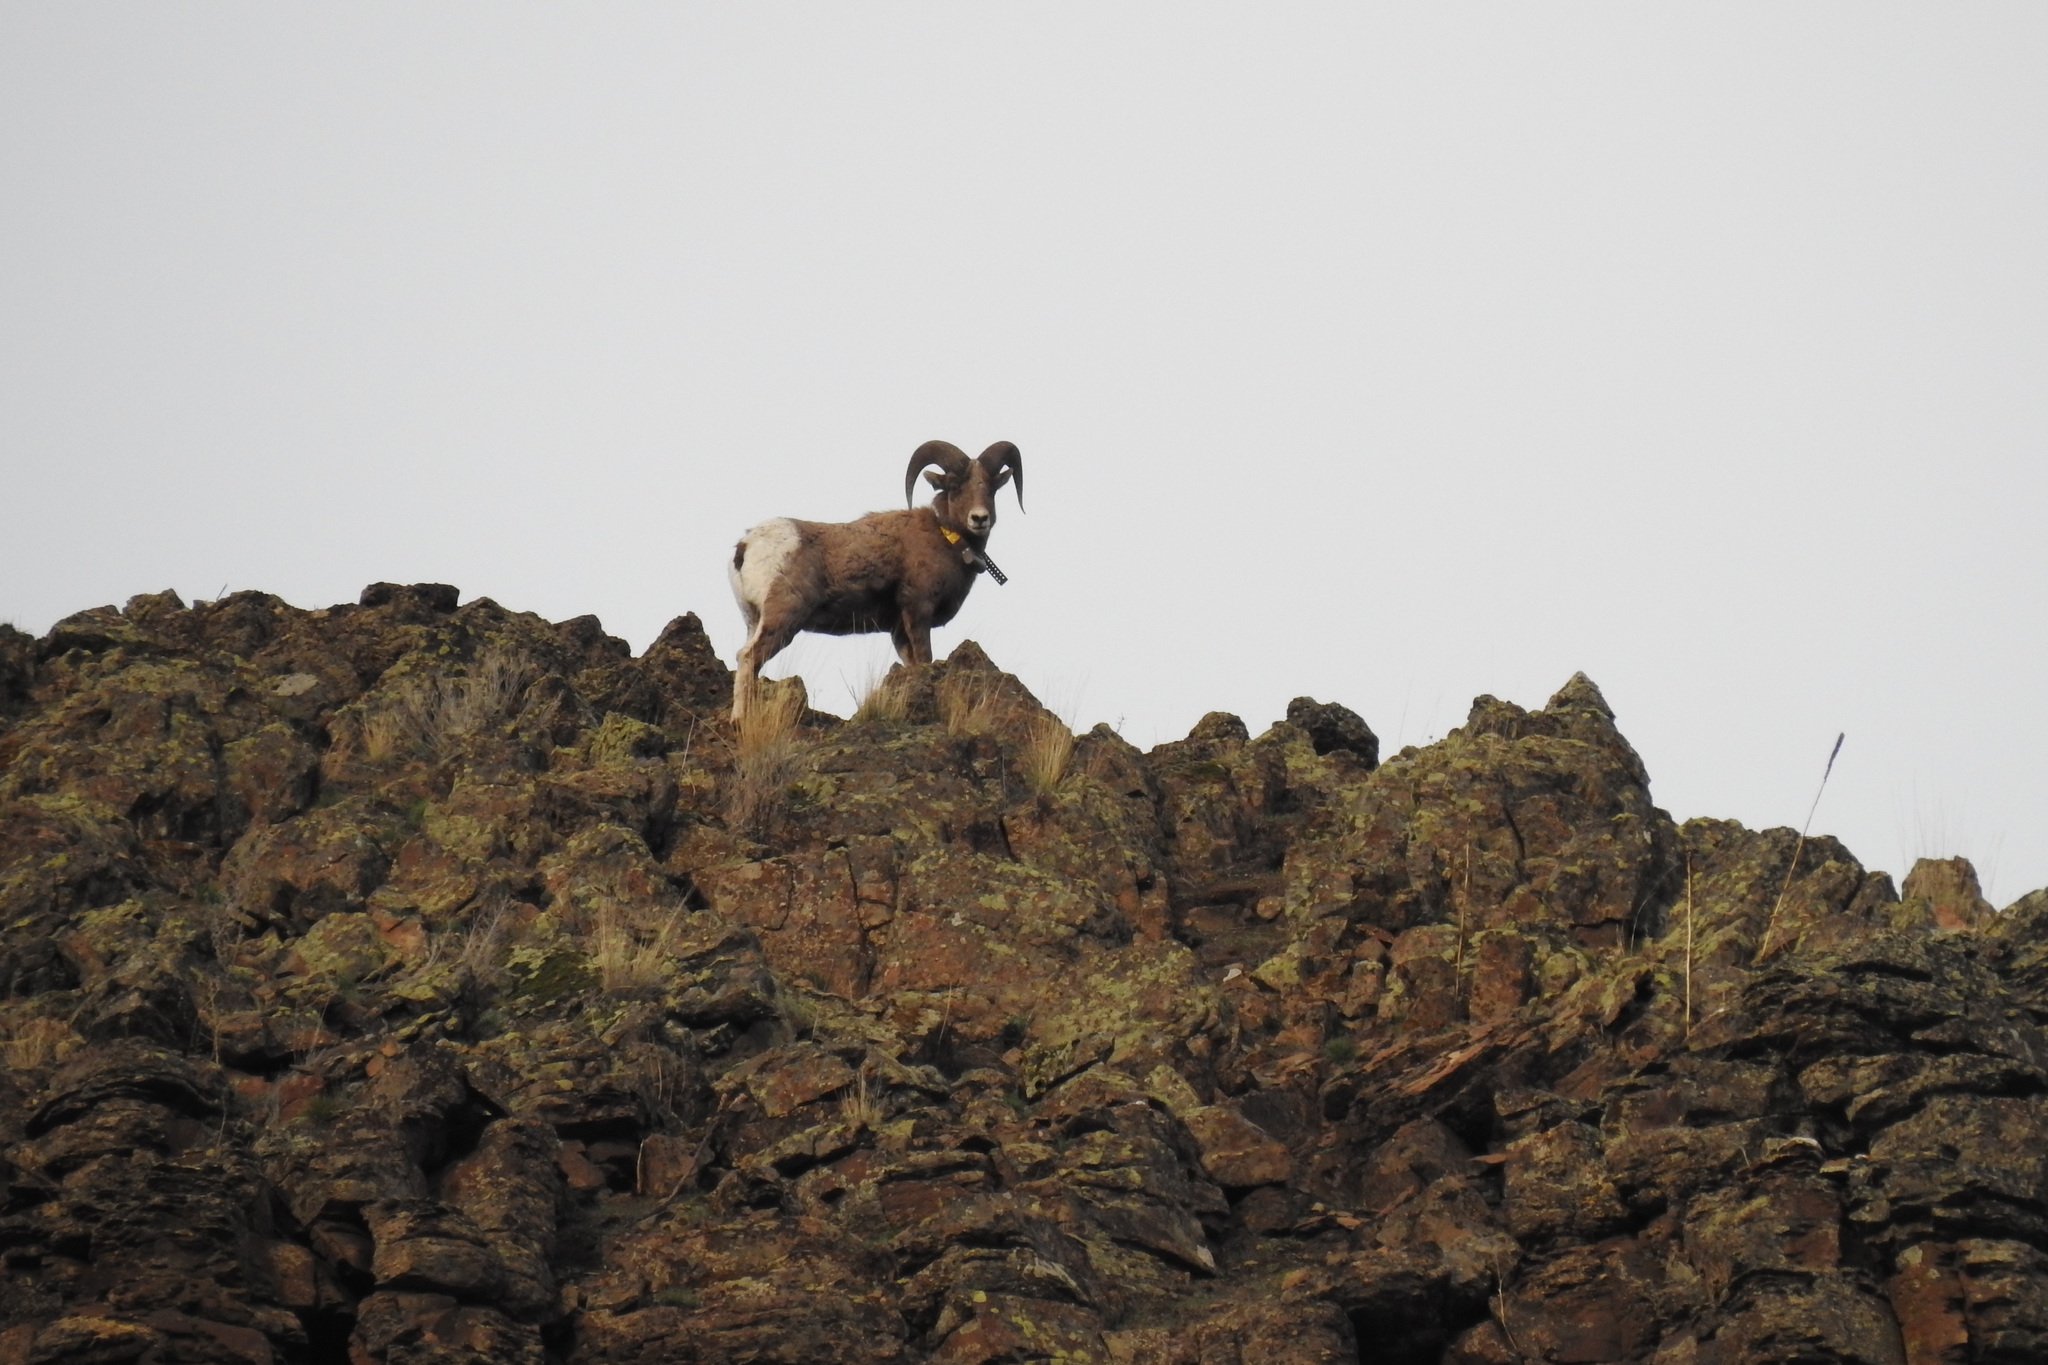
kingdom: Animalia
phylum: Chordata
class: Mammalia
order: Artiodactyla
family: Bovidae
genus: Ovis
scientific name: Ovis canadensis
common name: Bighorn sheep
